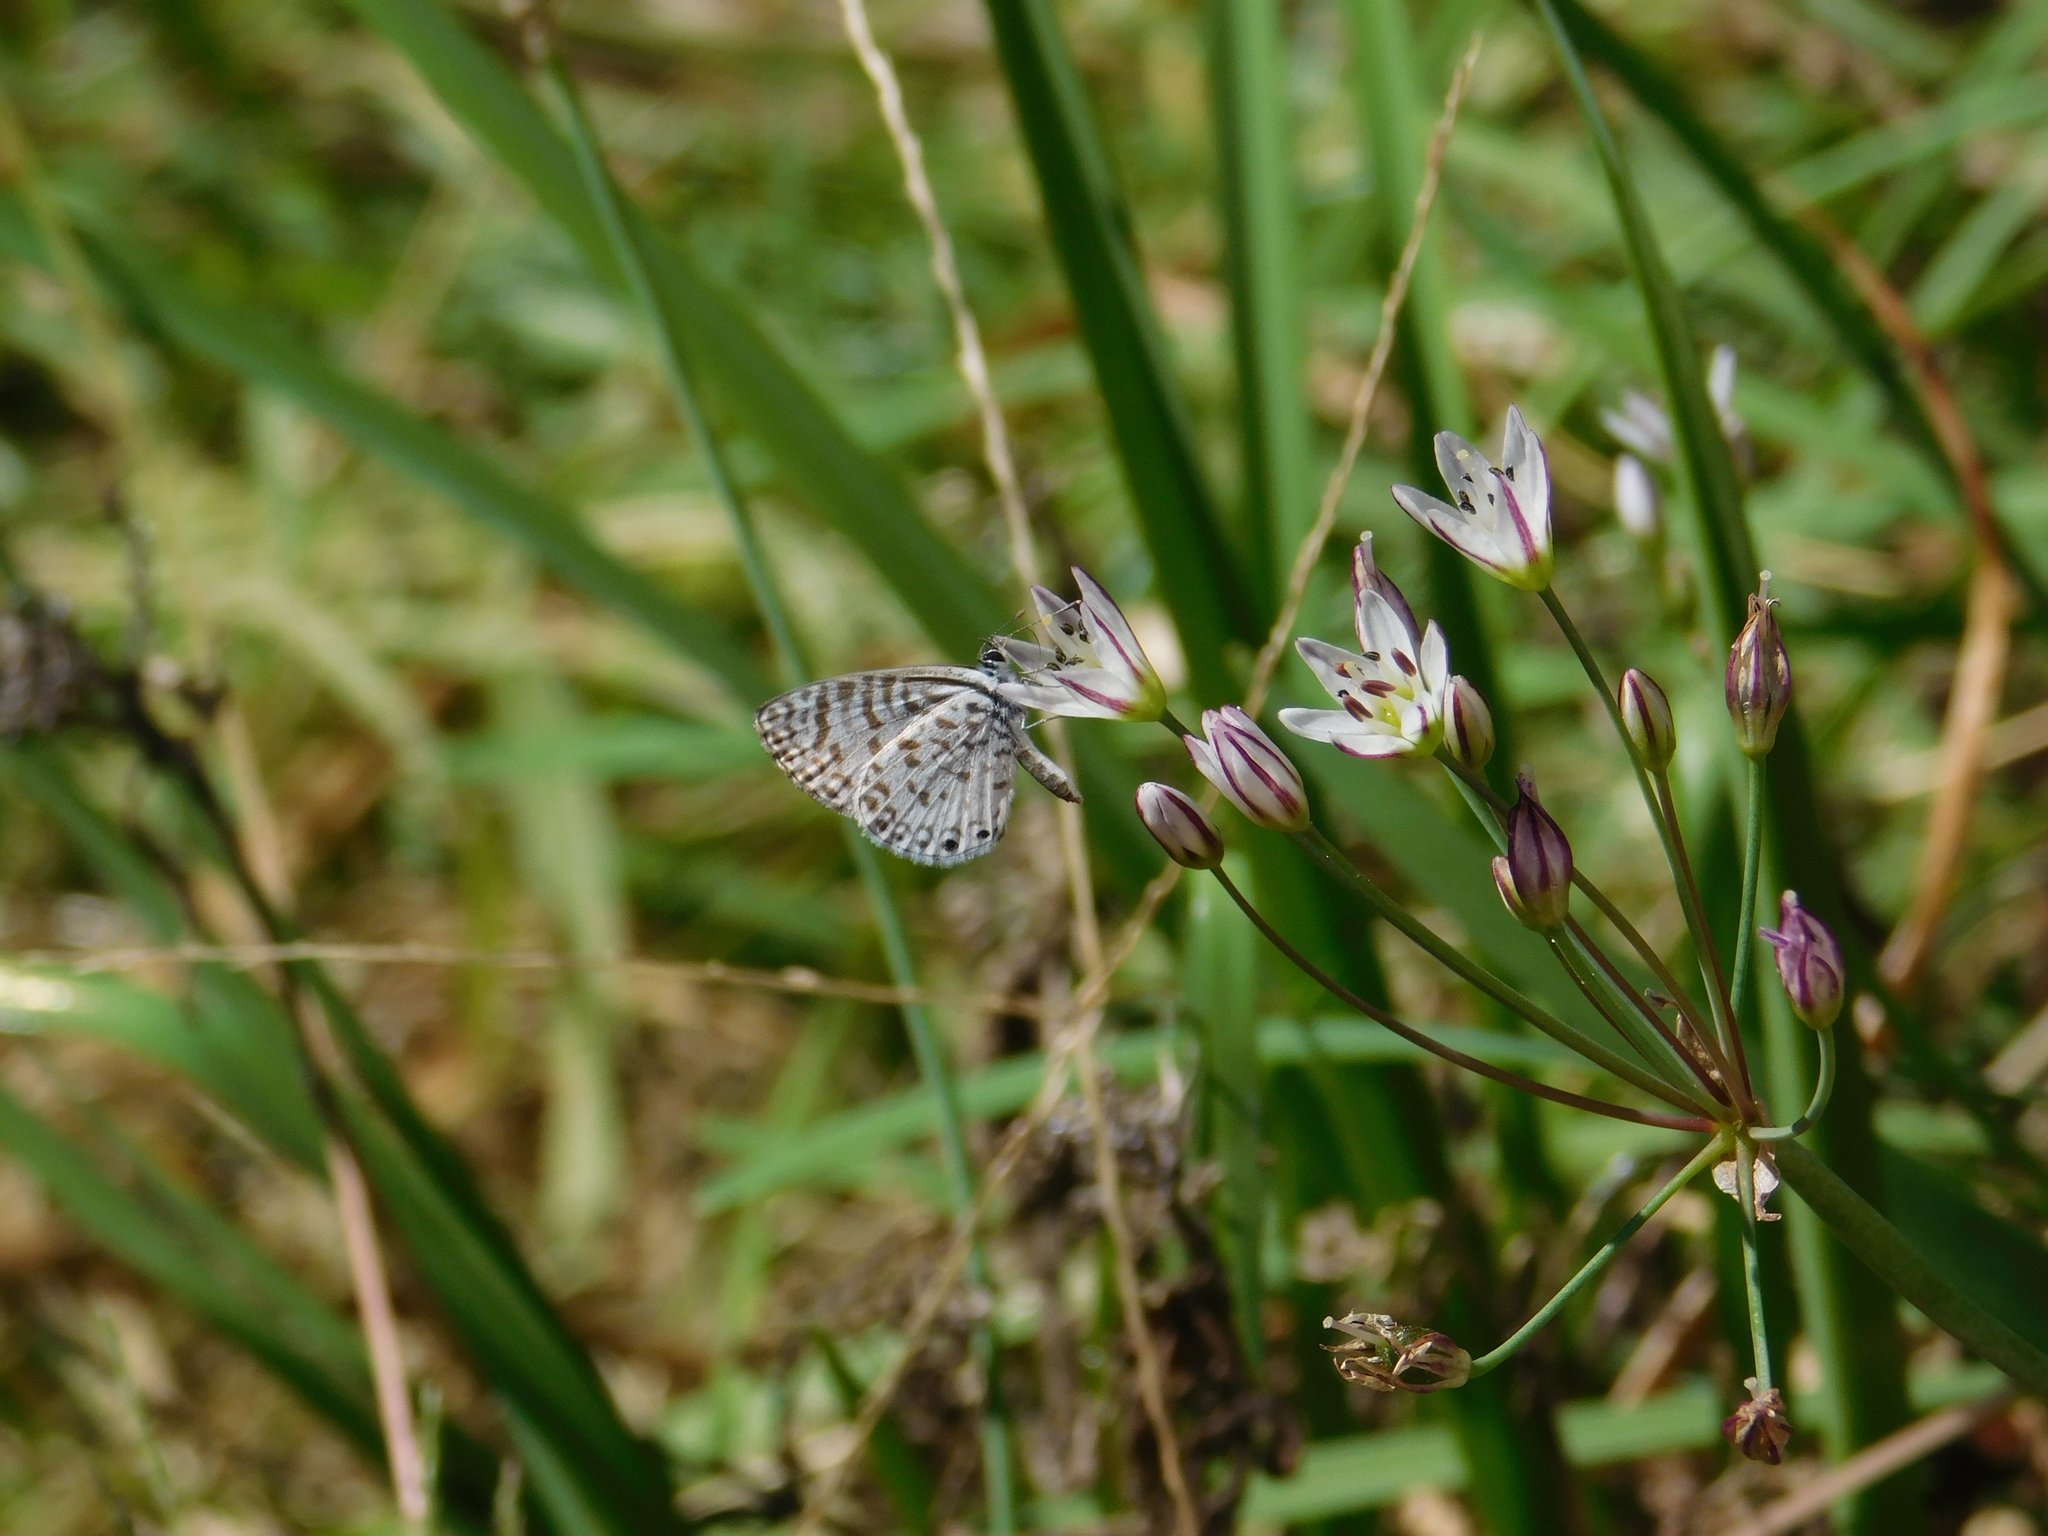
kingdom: Animalia
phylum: Arthropoda
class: Insecta
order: Lepidoptera
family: Lycaenidae
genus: Leptotes
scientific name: Leptotes cassius
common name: Cassius blue
